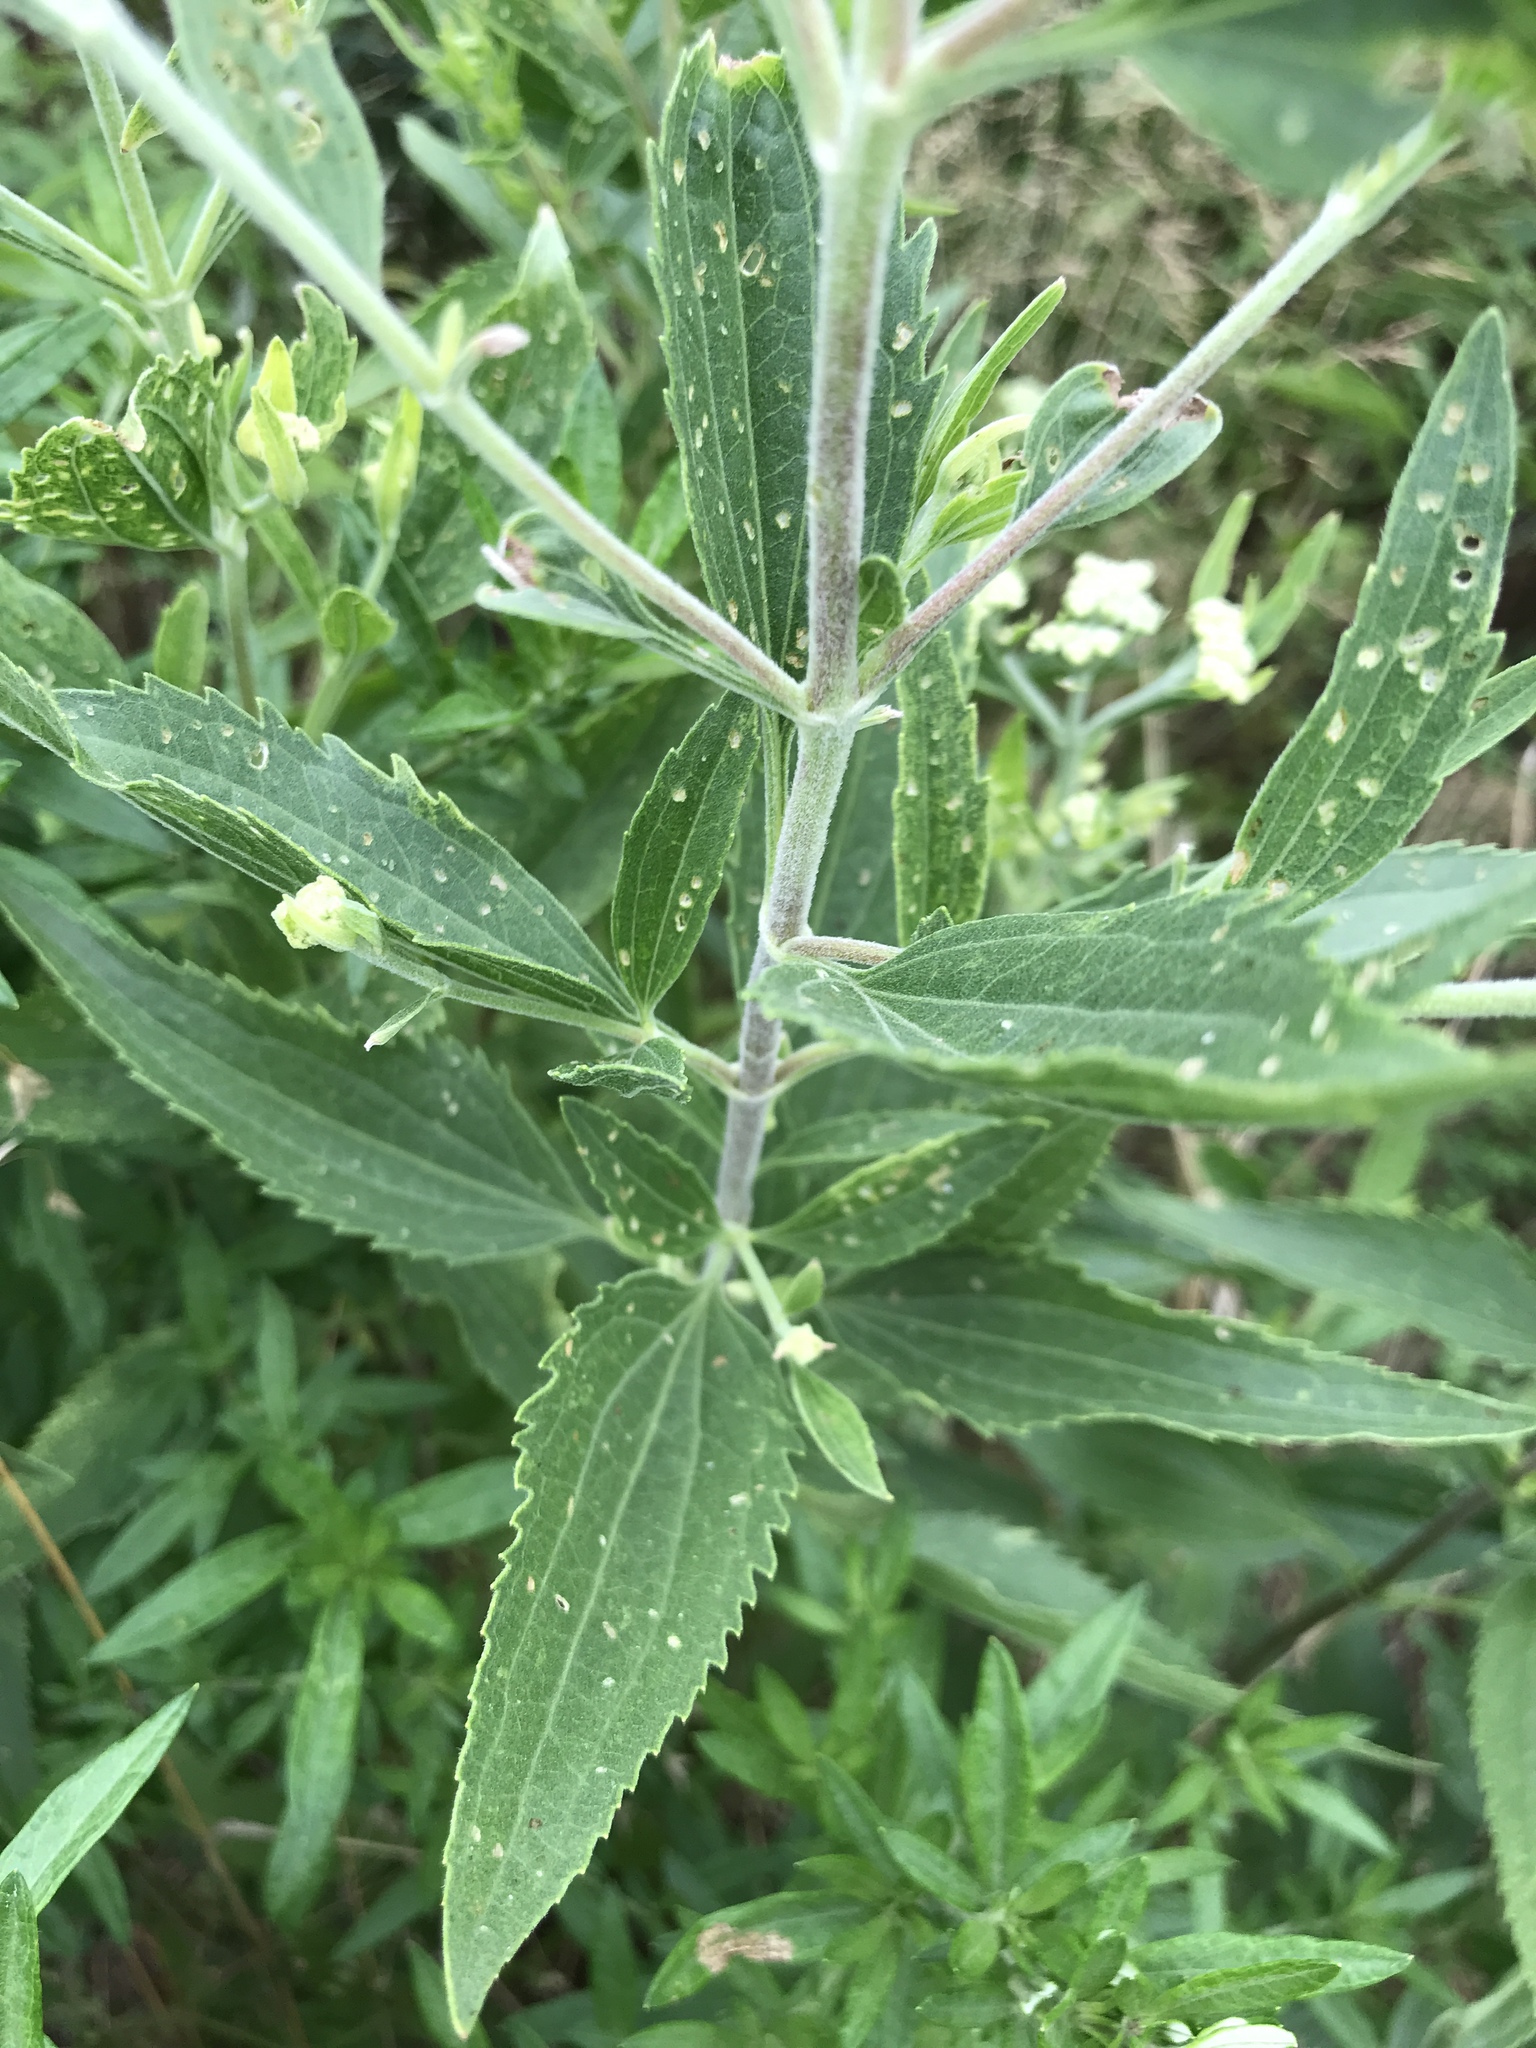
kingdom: Plantae
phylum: Tracheophyta
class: Magnoliopsida
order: Asterales
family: Asteraceae
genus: Eupatorium
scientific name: Eupatorium altissimum
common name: Tall thoroughwort
